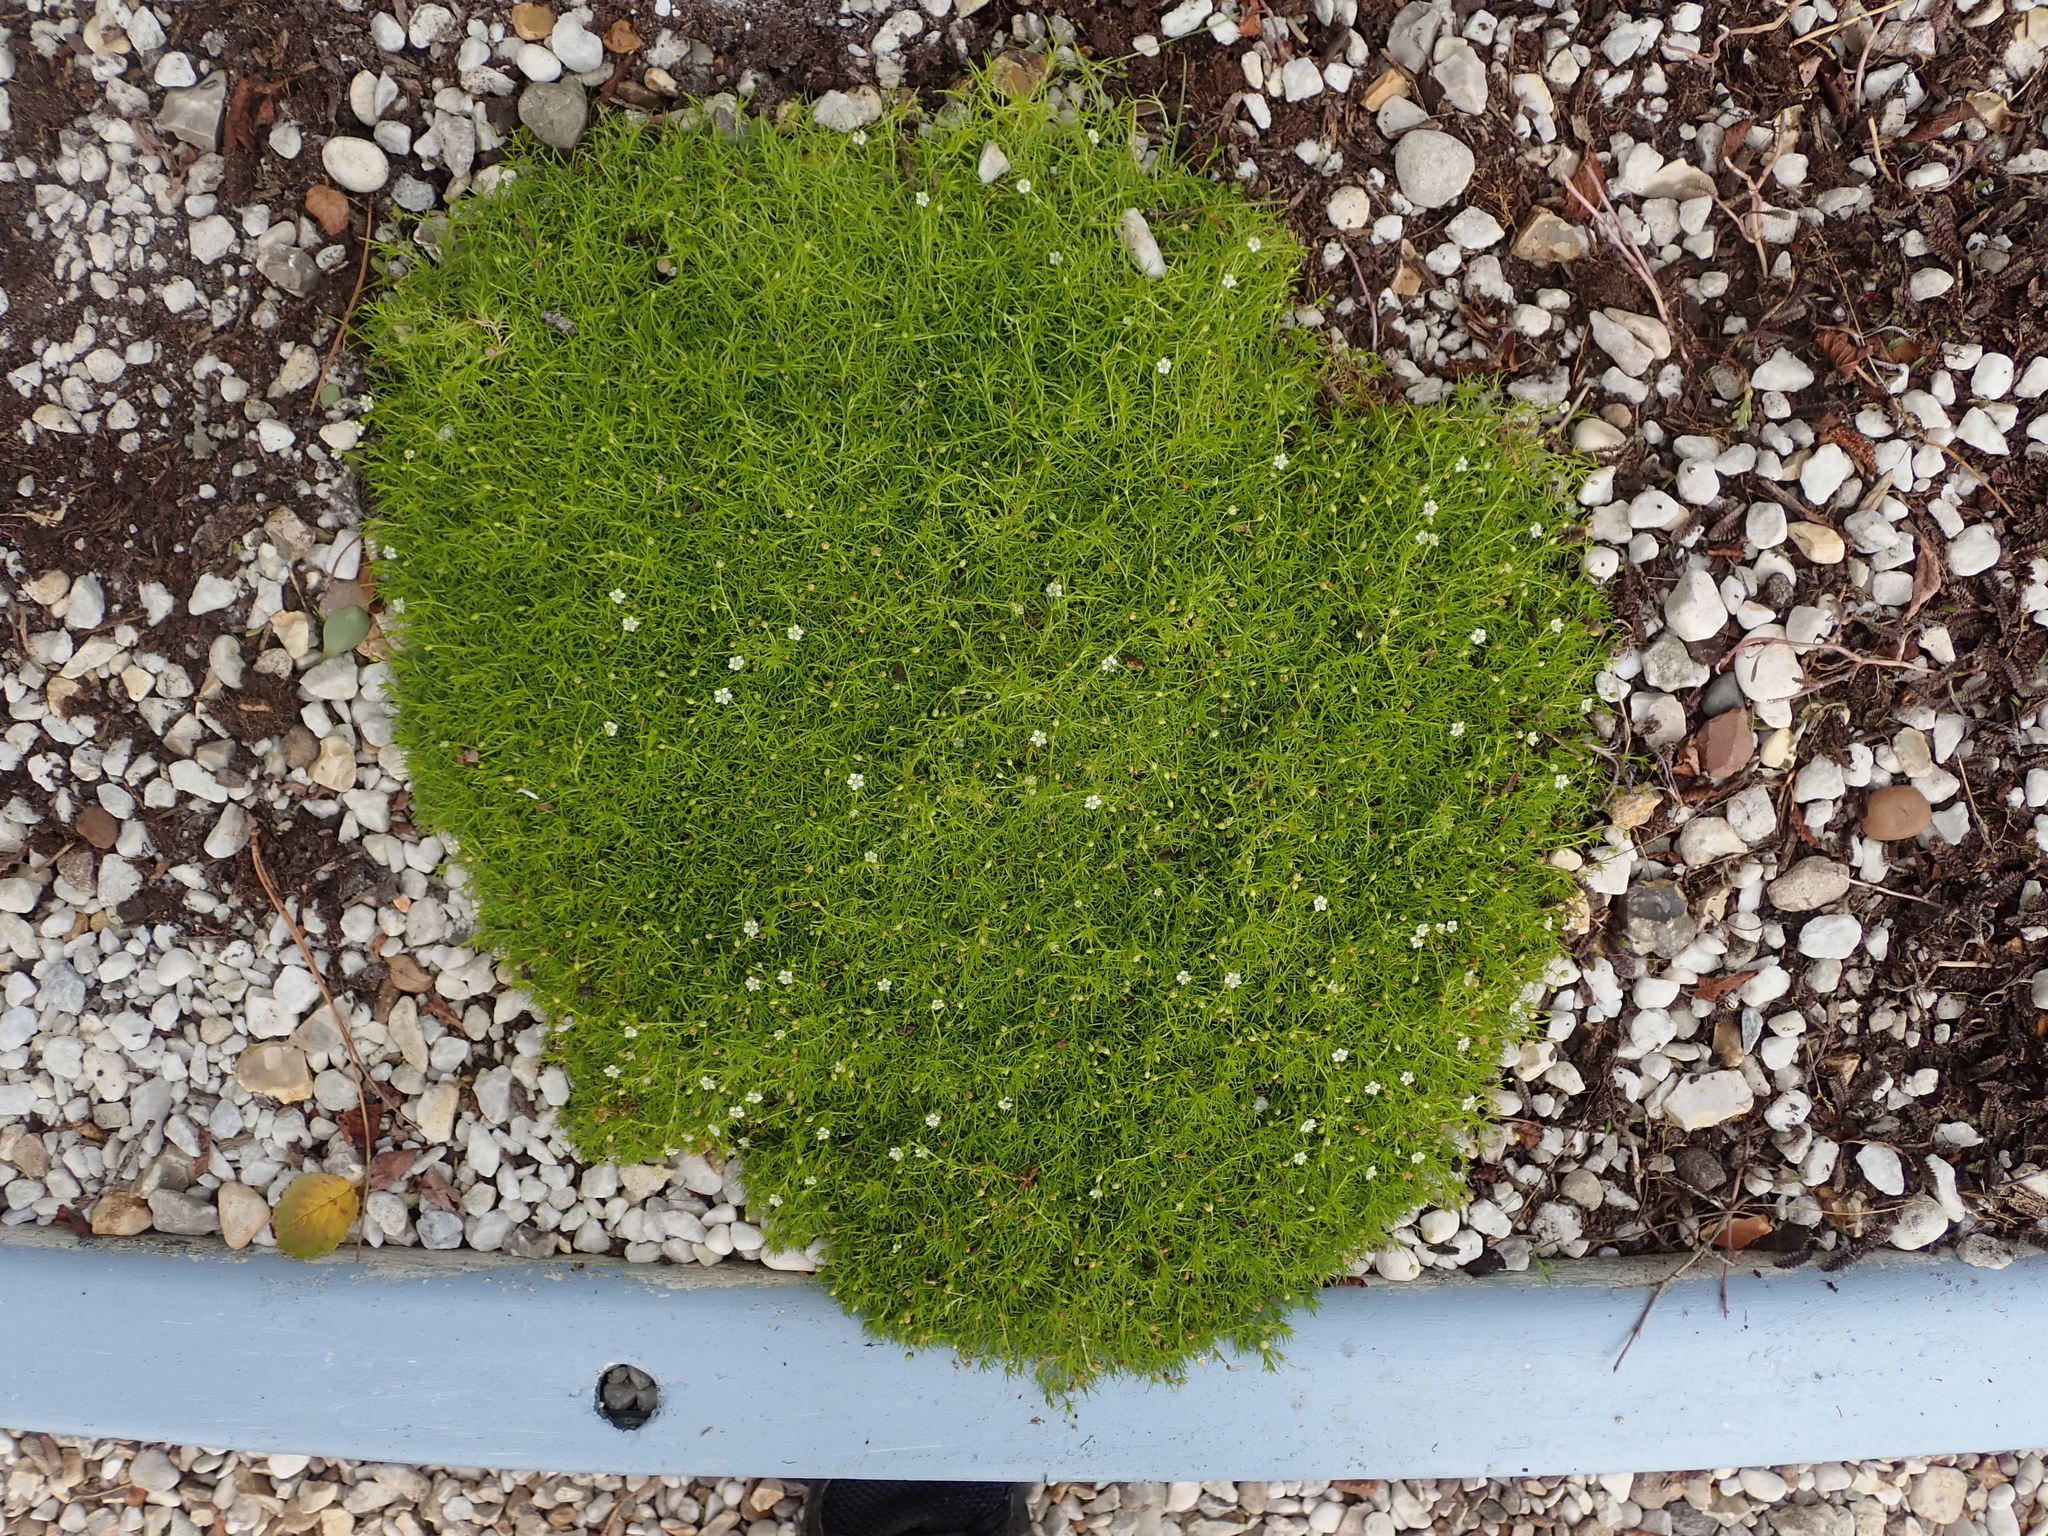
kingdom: Plantae
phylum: Tracheophyta
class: Magnoliopsida
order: Caryophyllales
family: Caryophyllaceae
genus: Sagina
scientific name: Sagina subulata
